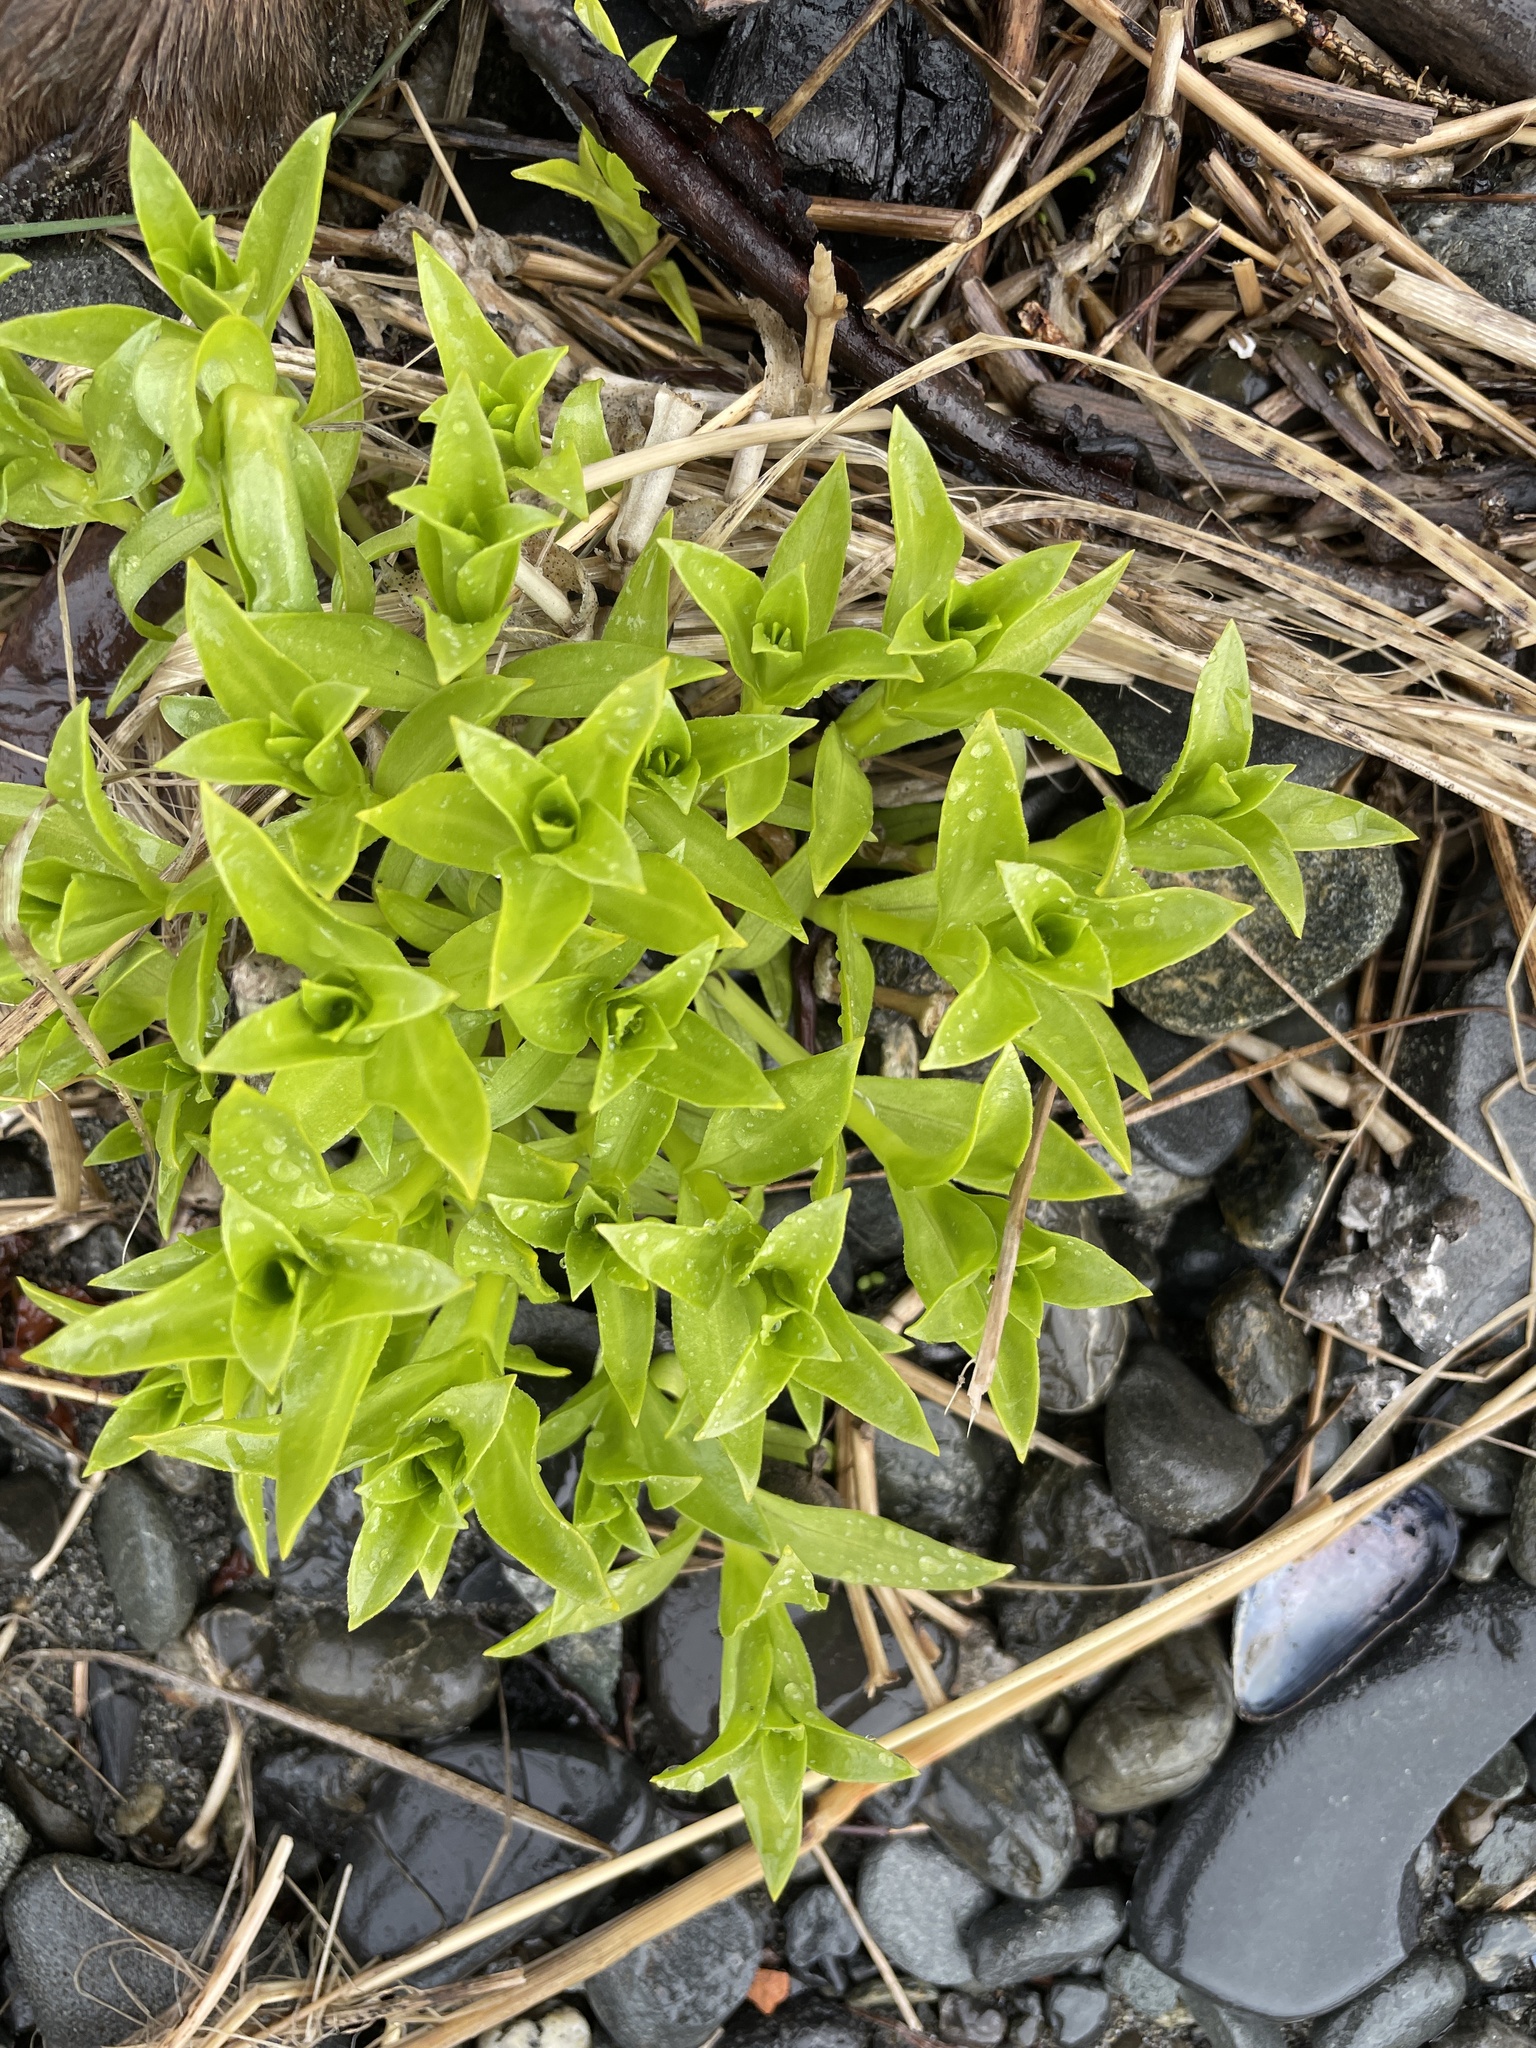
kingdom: Plantae
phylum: Tracheophyta
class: Magnoliopsida
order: Caryophyllales
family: Caryophyllaceae
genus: Honckenya
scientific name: Honckenya peploides
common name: Sea sandwort
